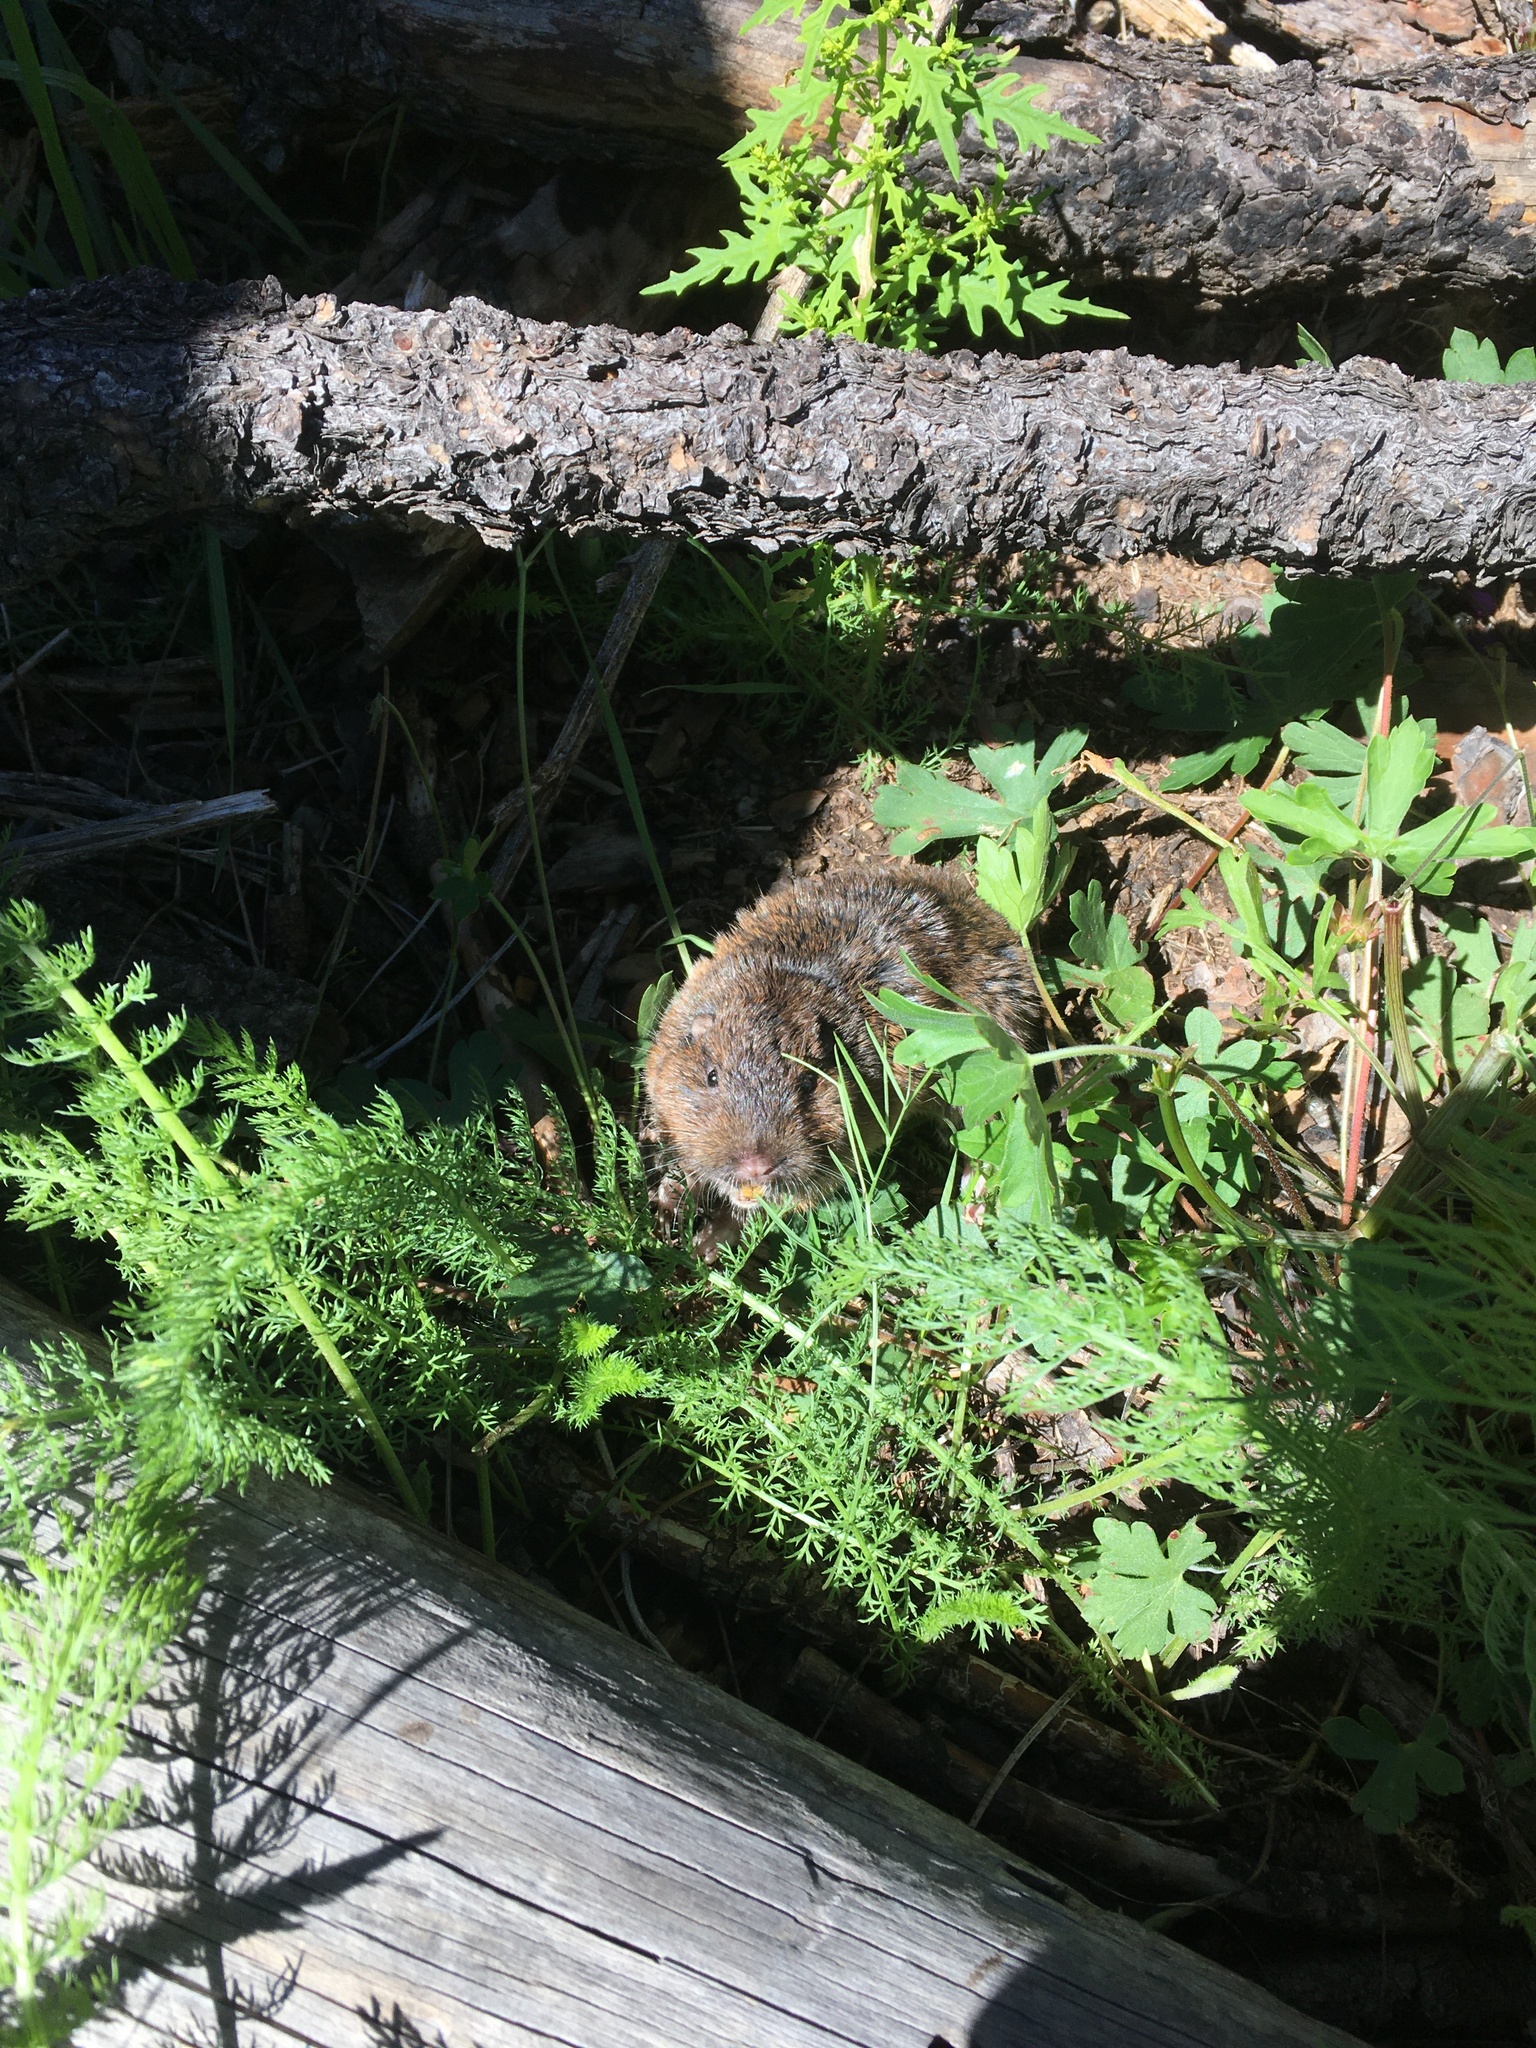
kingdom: Animalia
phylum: Chordata
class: Mammalia
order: Rodentia
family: Geomyidae
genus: Thomomys
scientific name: Thomomys bottae
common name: Botta's pocket gopher
